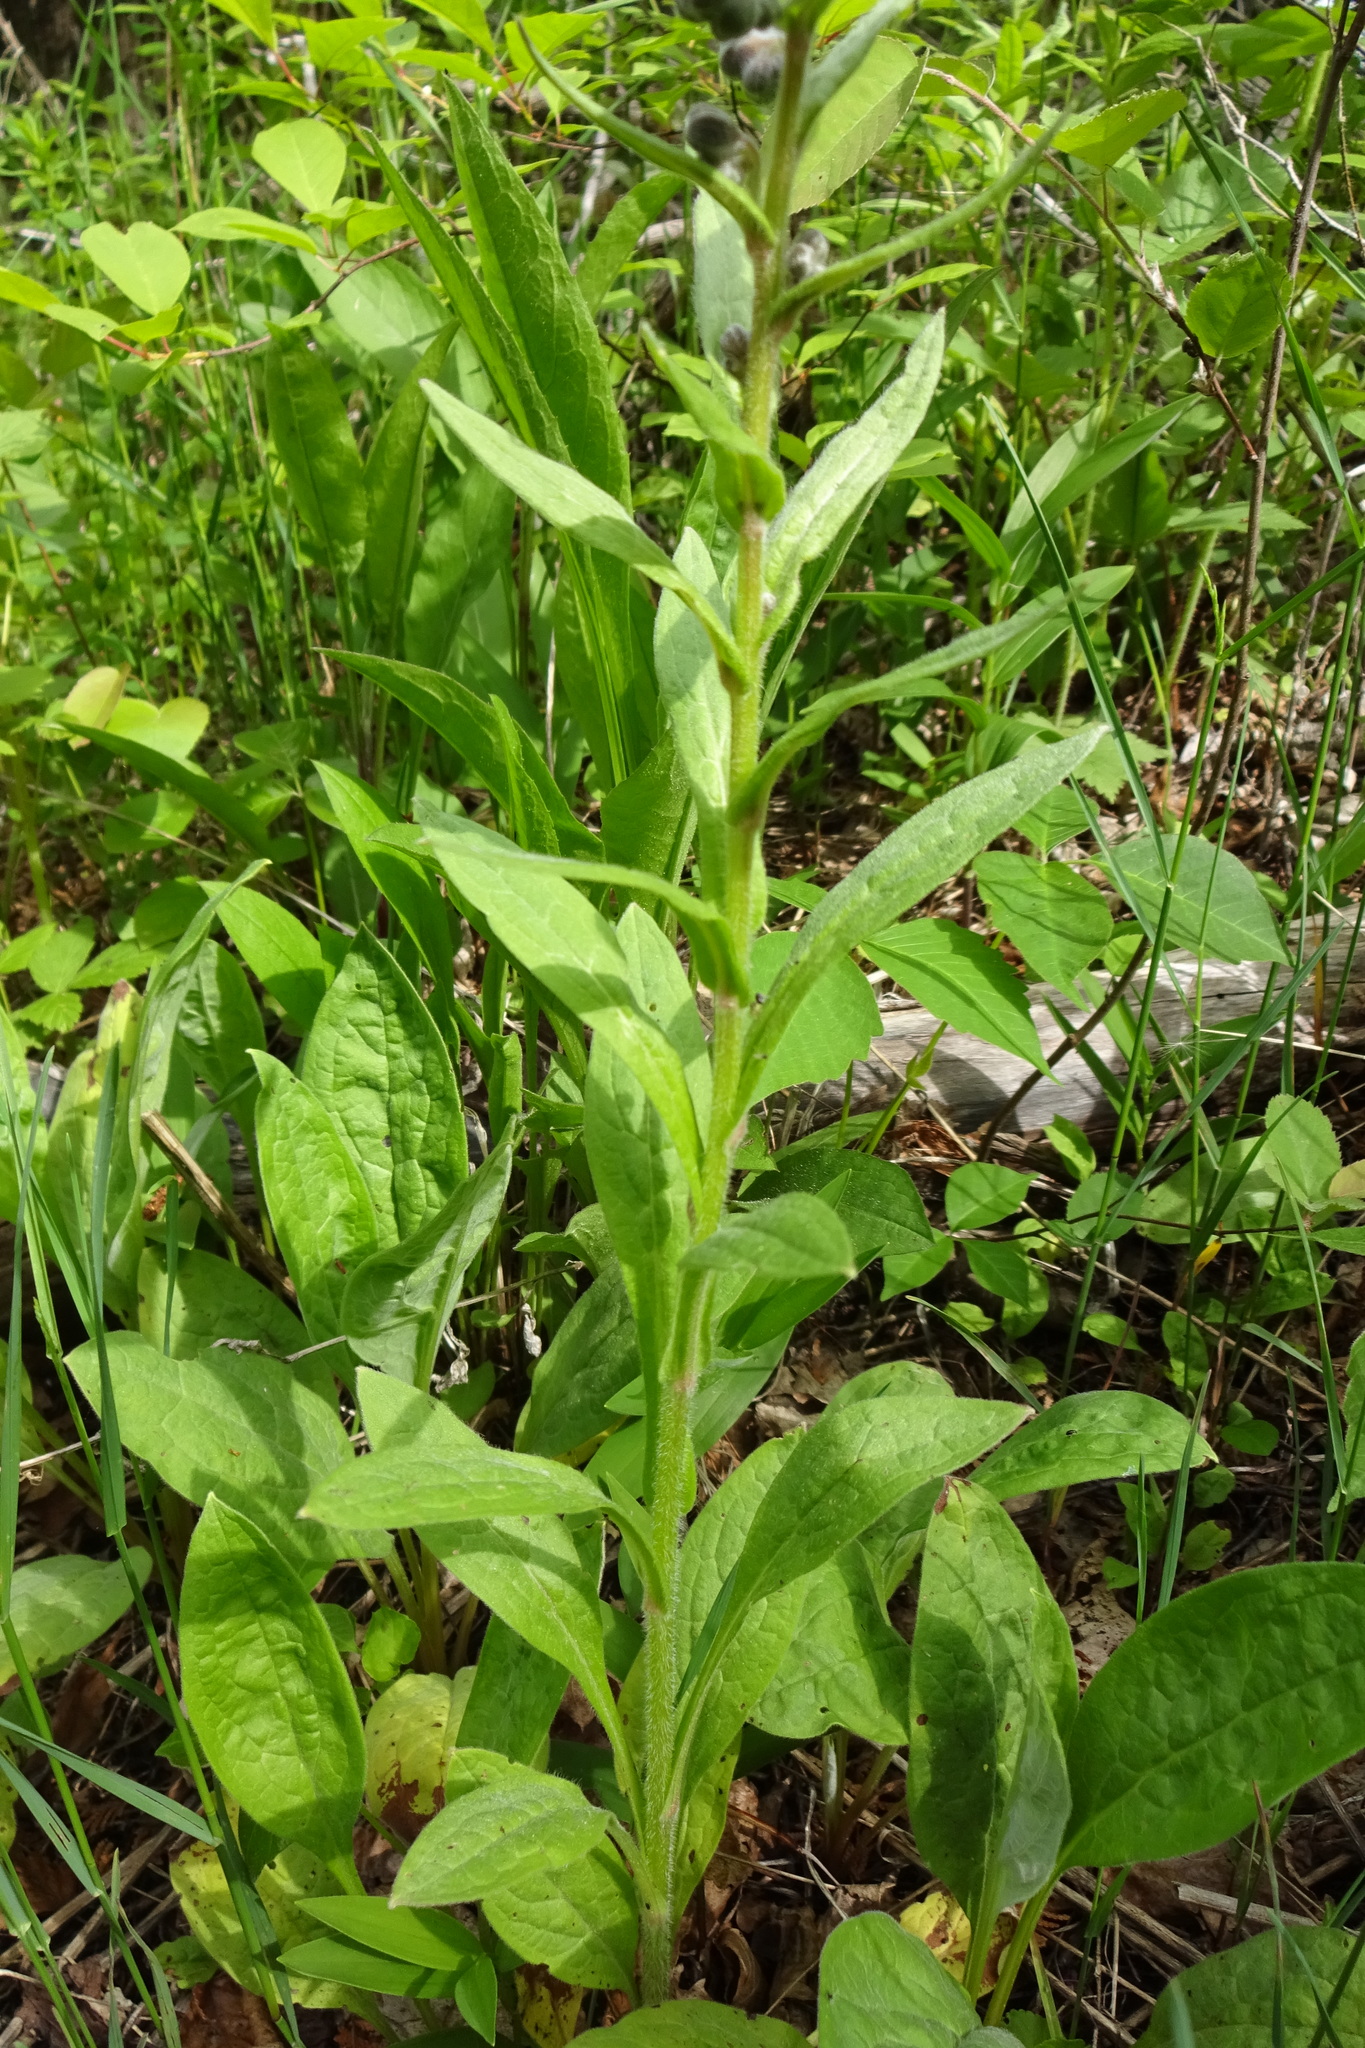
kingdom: Plantae
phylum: Tracheophyta
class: Magnoliopsida
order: Boraginales
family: Boraginaceae
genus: Cynoglossum
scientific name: Cynoglossum officinale
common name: Hound's-tongue
